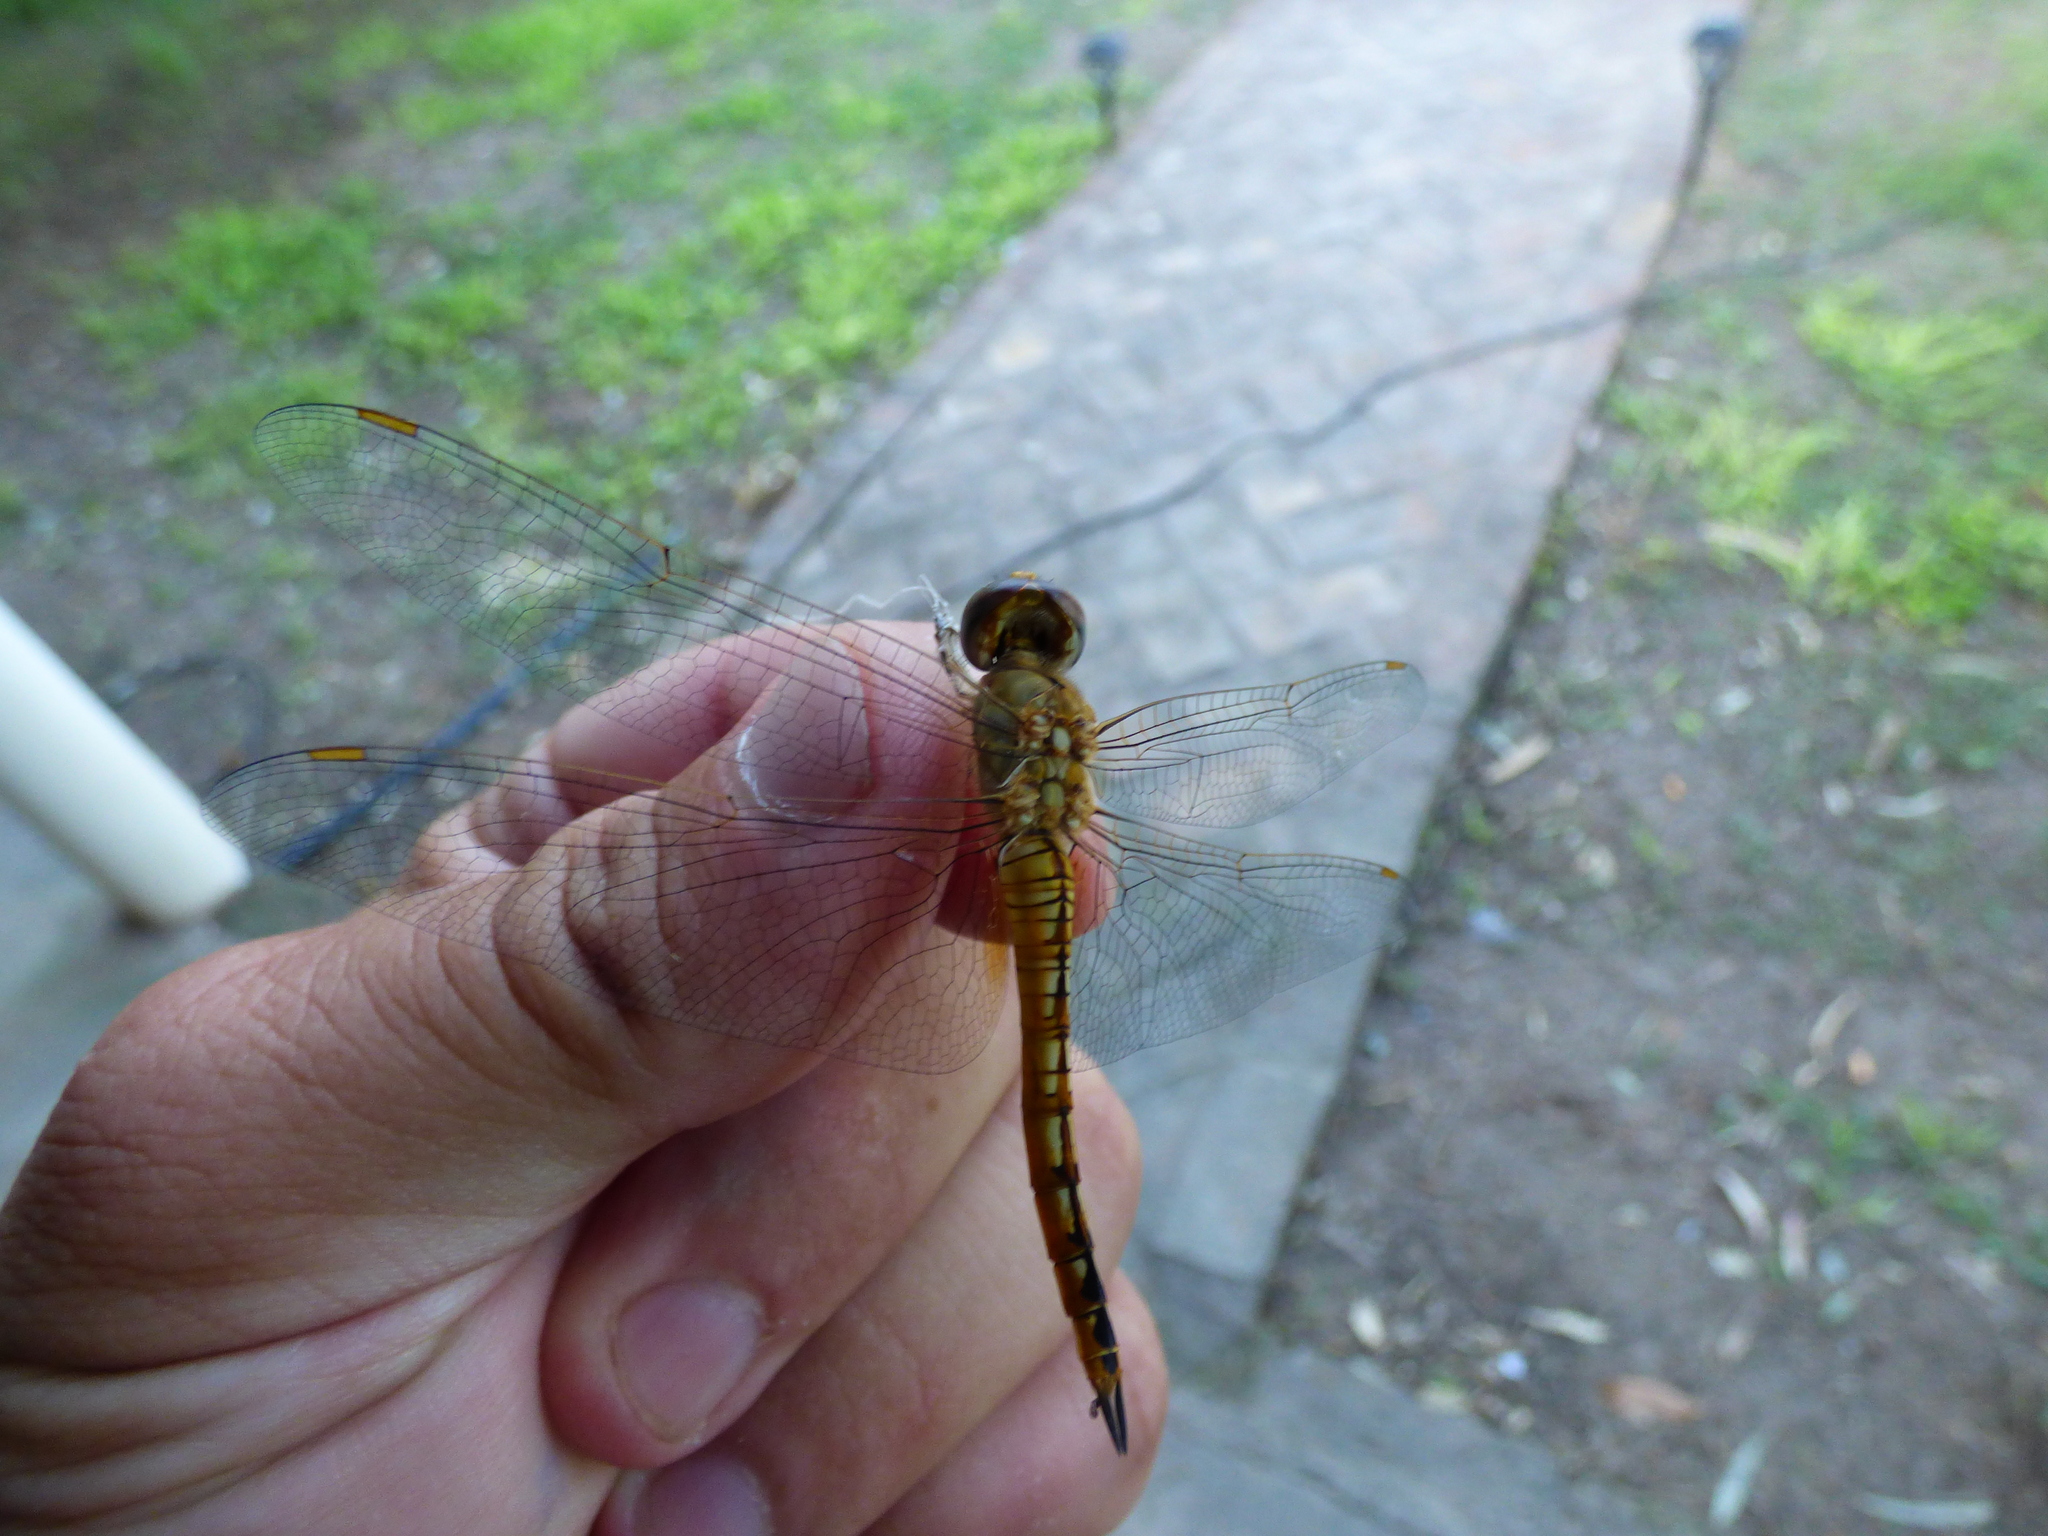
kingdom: Animalia
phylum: Arthropoda
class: Insecta
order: Odonata
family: Libellulidae
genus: Pantala
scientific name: Pantala flavescens
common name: Wandering glider
